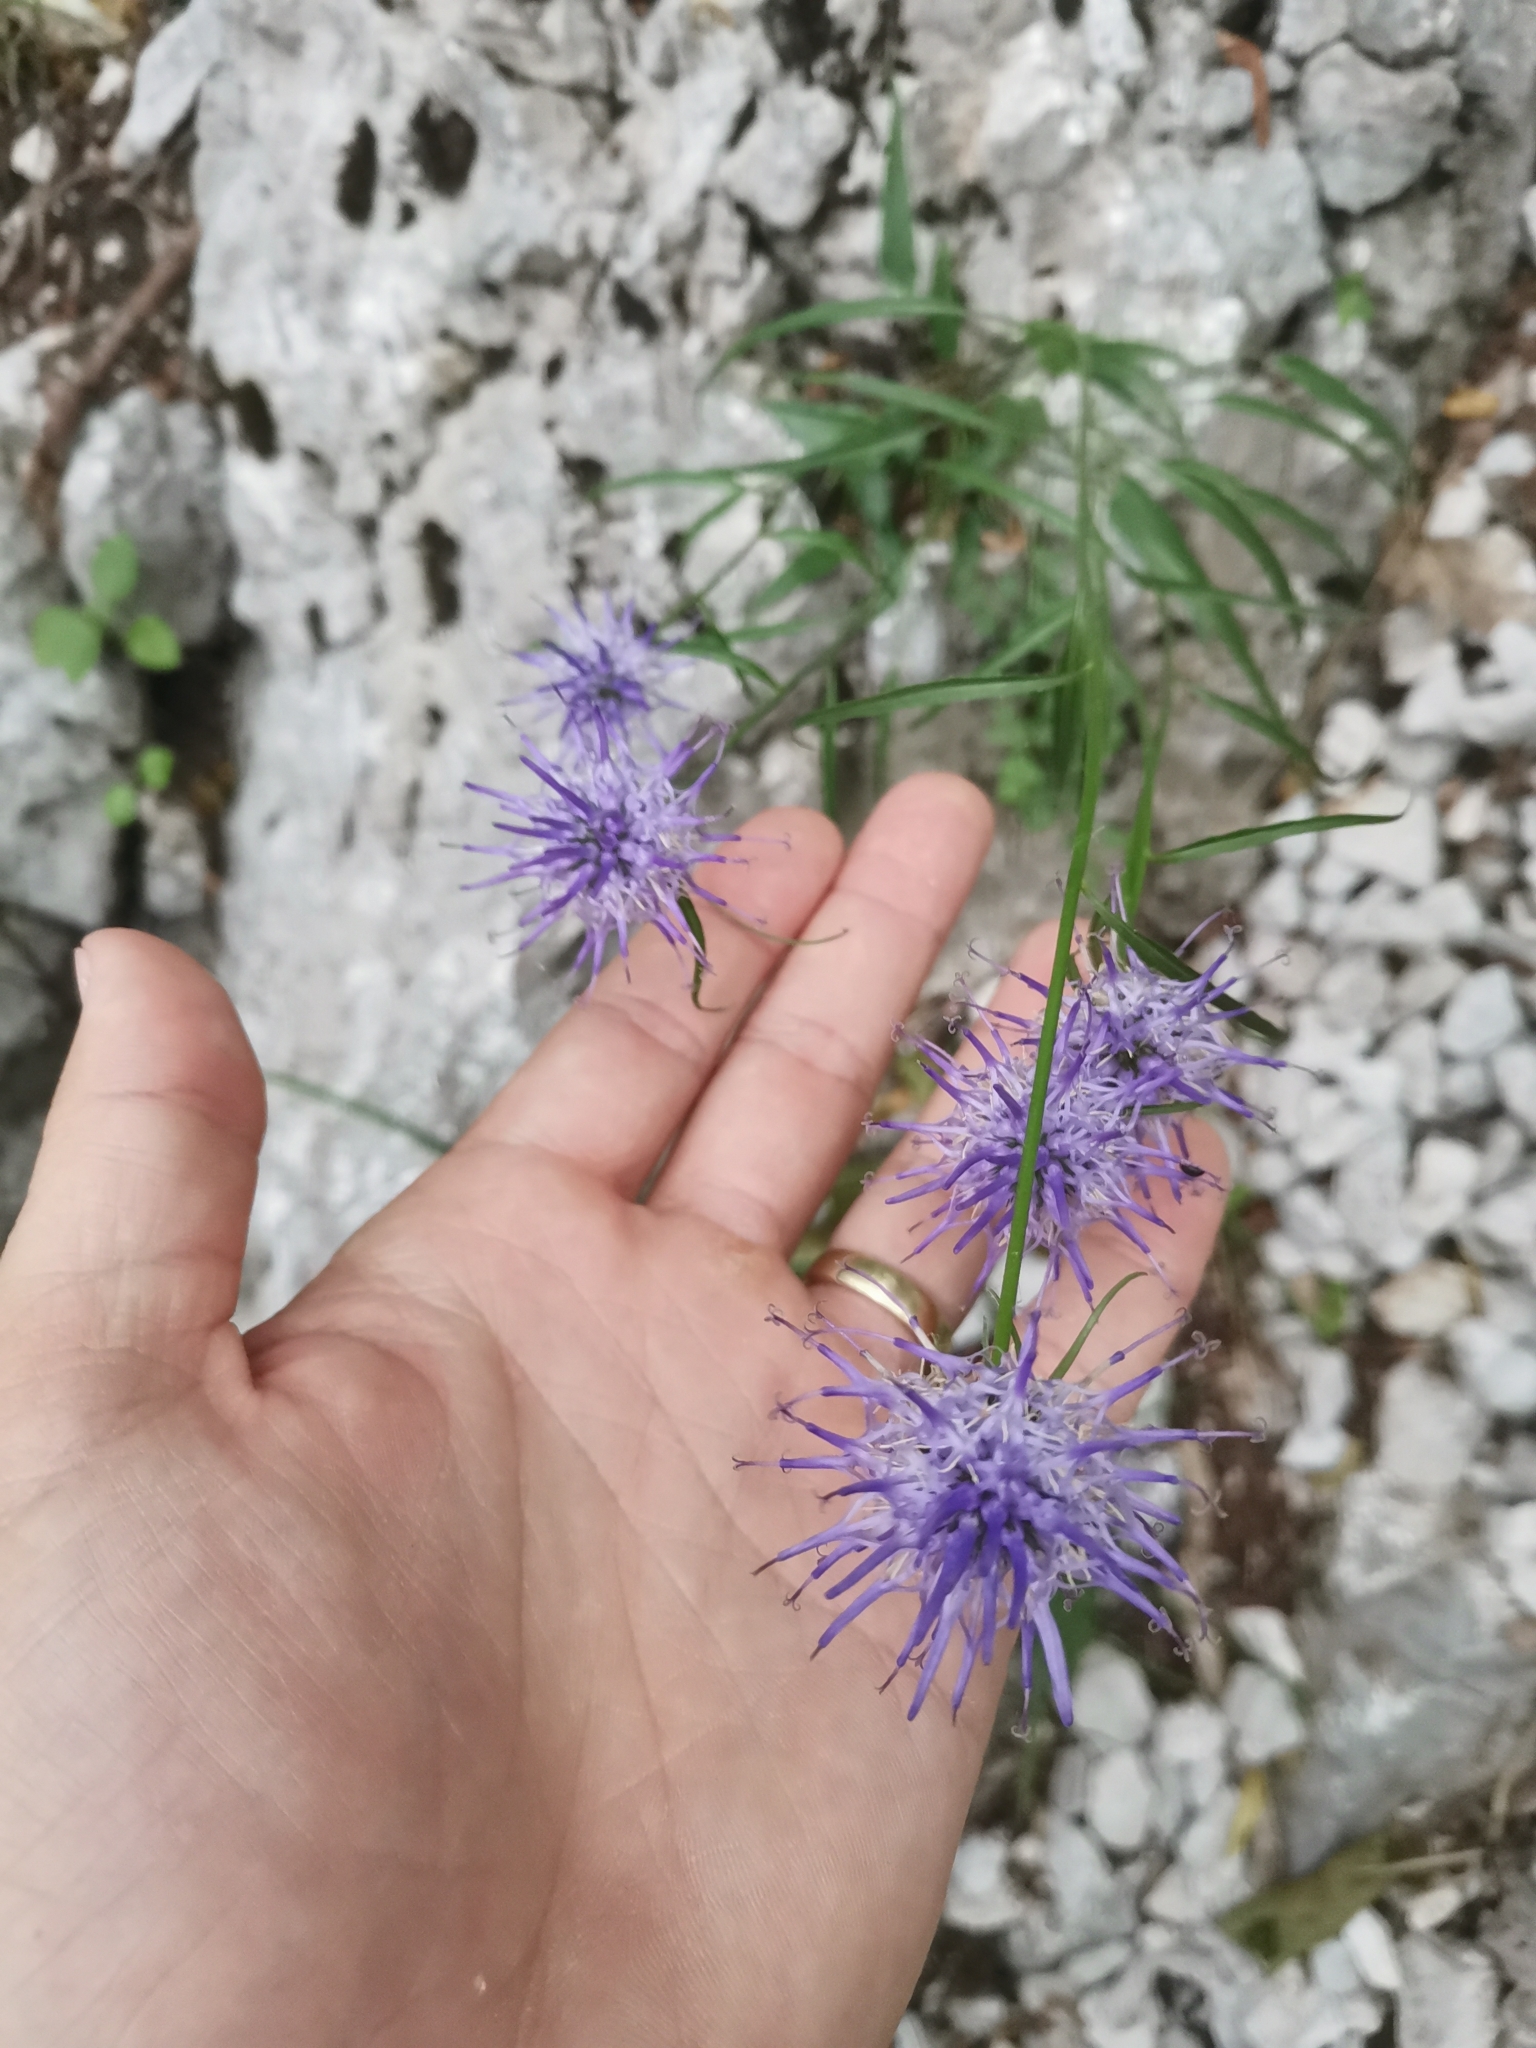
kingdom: Plantae
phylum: Tracheophyta
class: Magnoliopsida
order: Asterales
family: Campanulaceae
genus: Phyteuma
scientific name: Phyteuma scheuchzeri
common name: Oxford rampion
